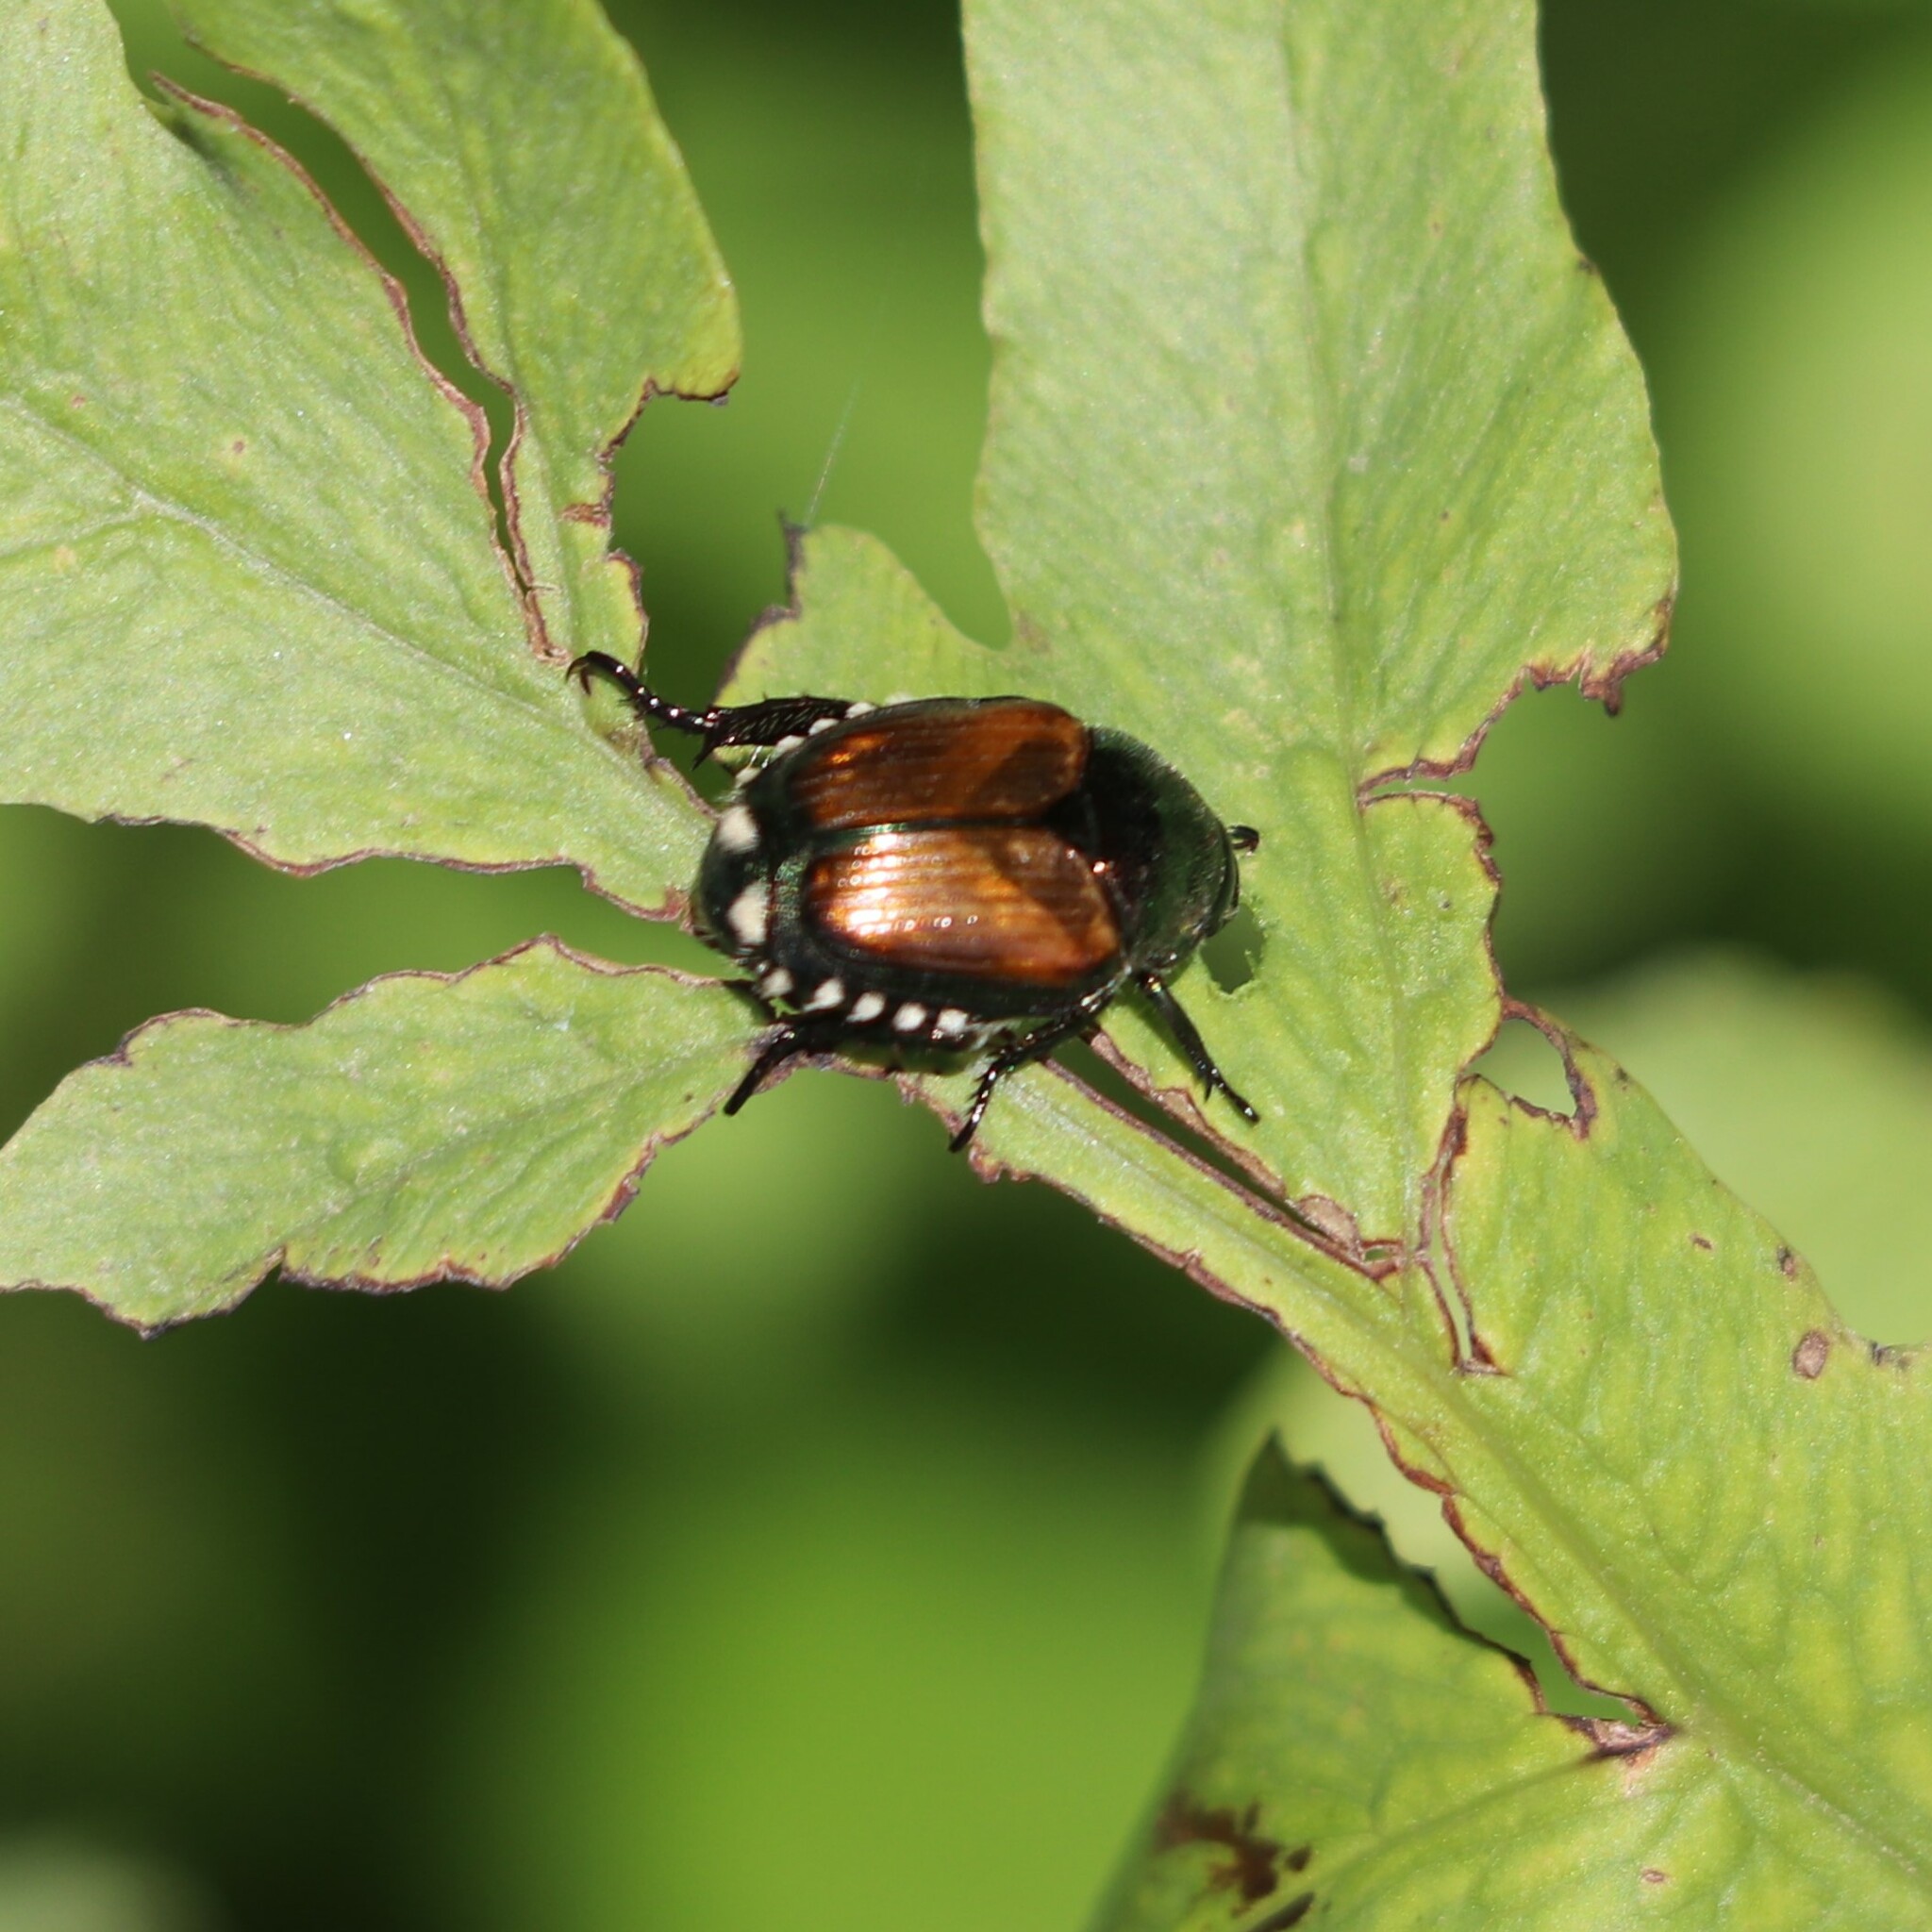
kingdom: Animalia
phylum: Arthropoda
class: Insecta
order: Coleoptera
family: Scarabaeidae
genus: Popillia
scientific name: Popillia japonica
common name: Japanese beetle
